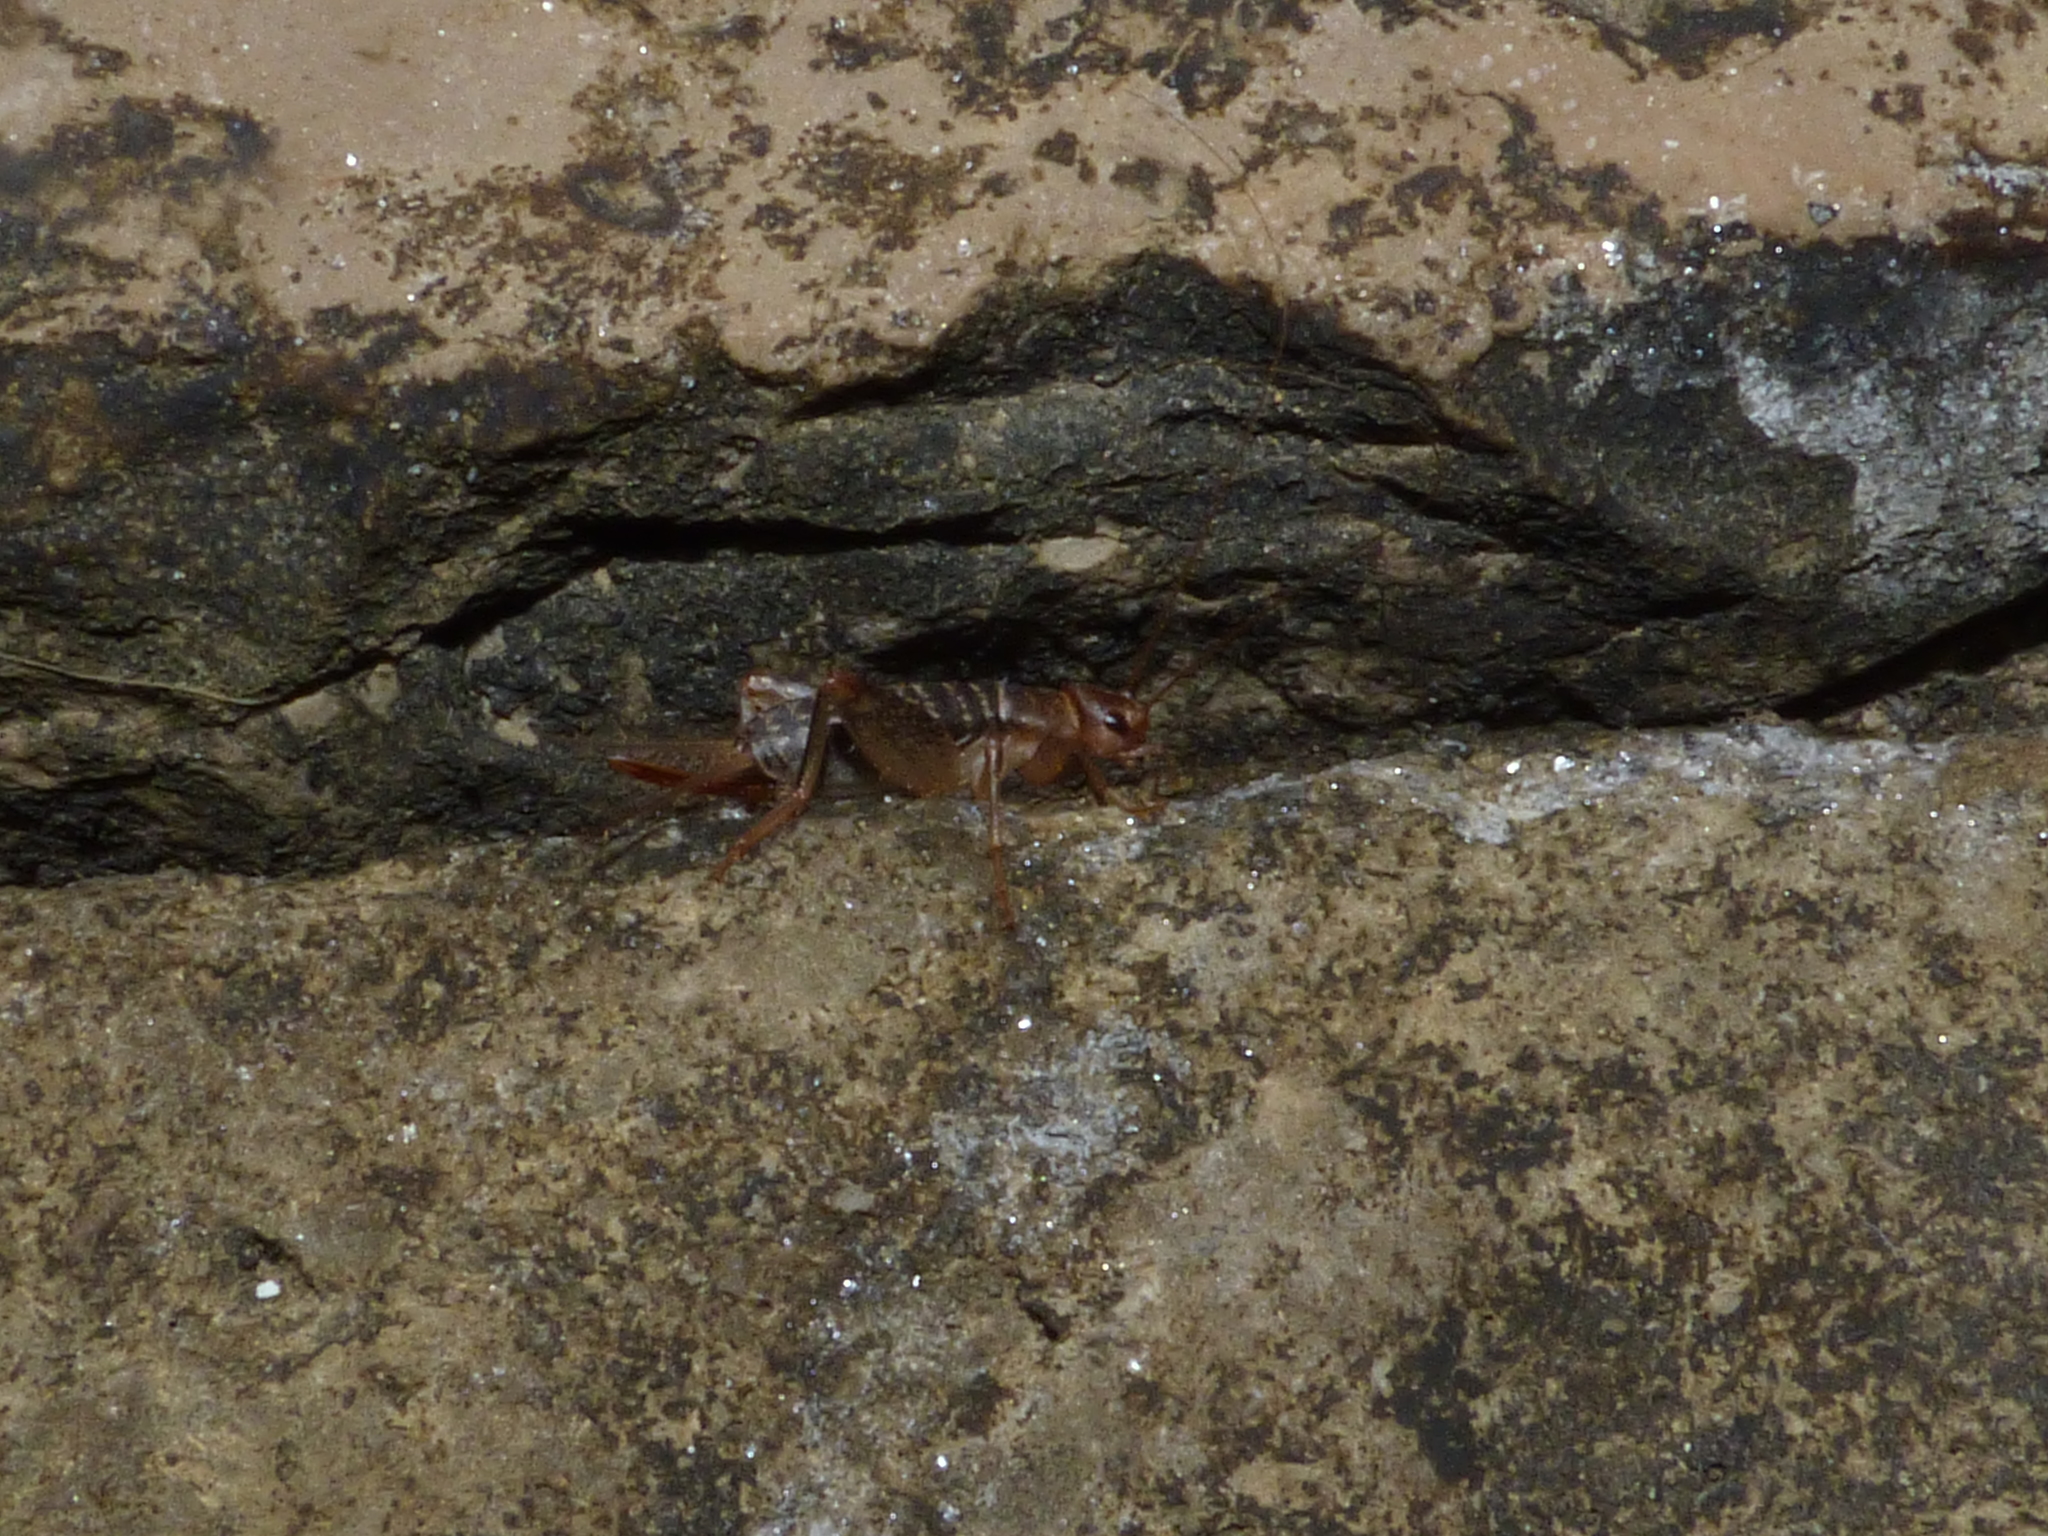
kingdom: Animalia
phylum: Arthropoda
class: Insecta
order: Orthoptera
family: Mogoplistidae
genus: Pseudomogoplistes
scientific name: Pseudomogoplistes squamiger
